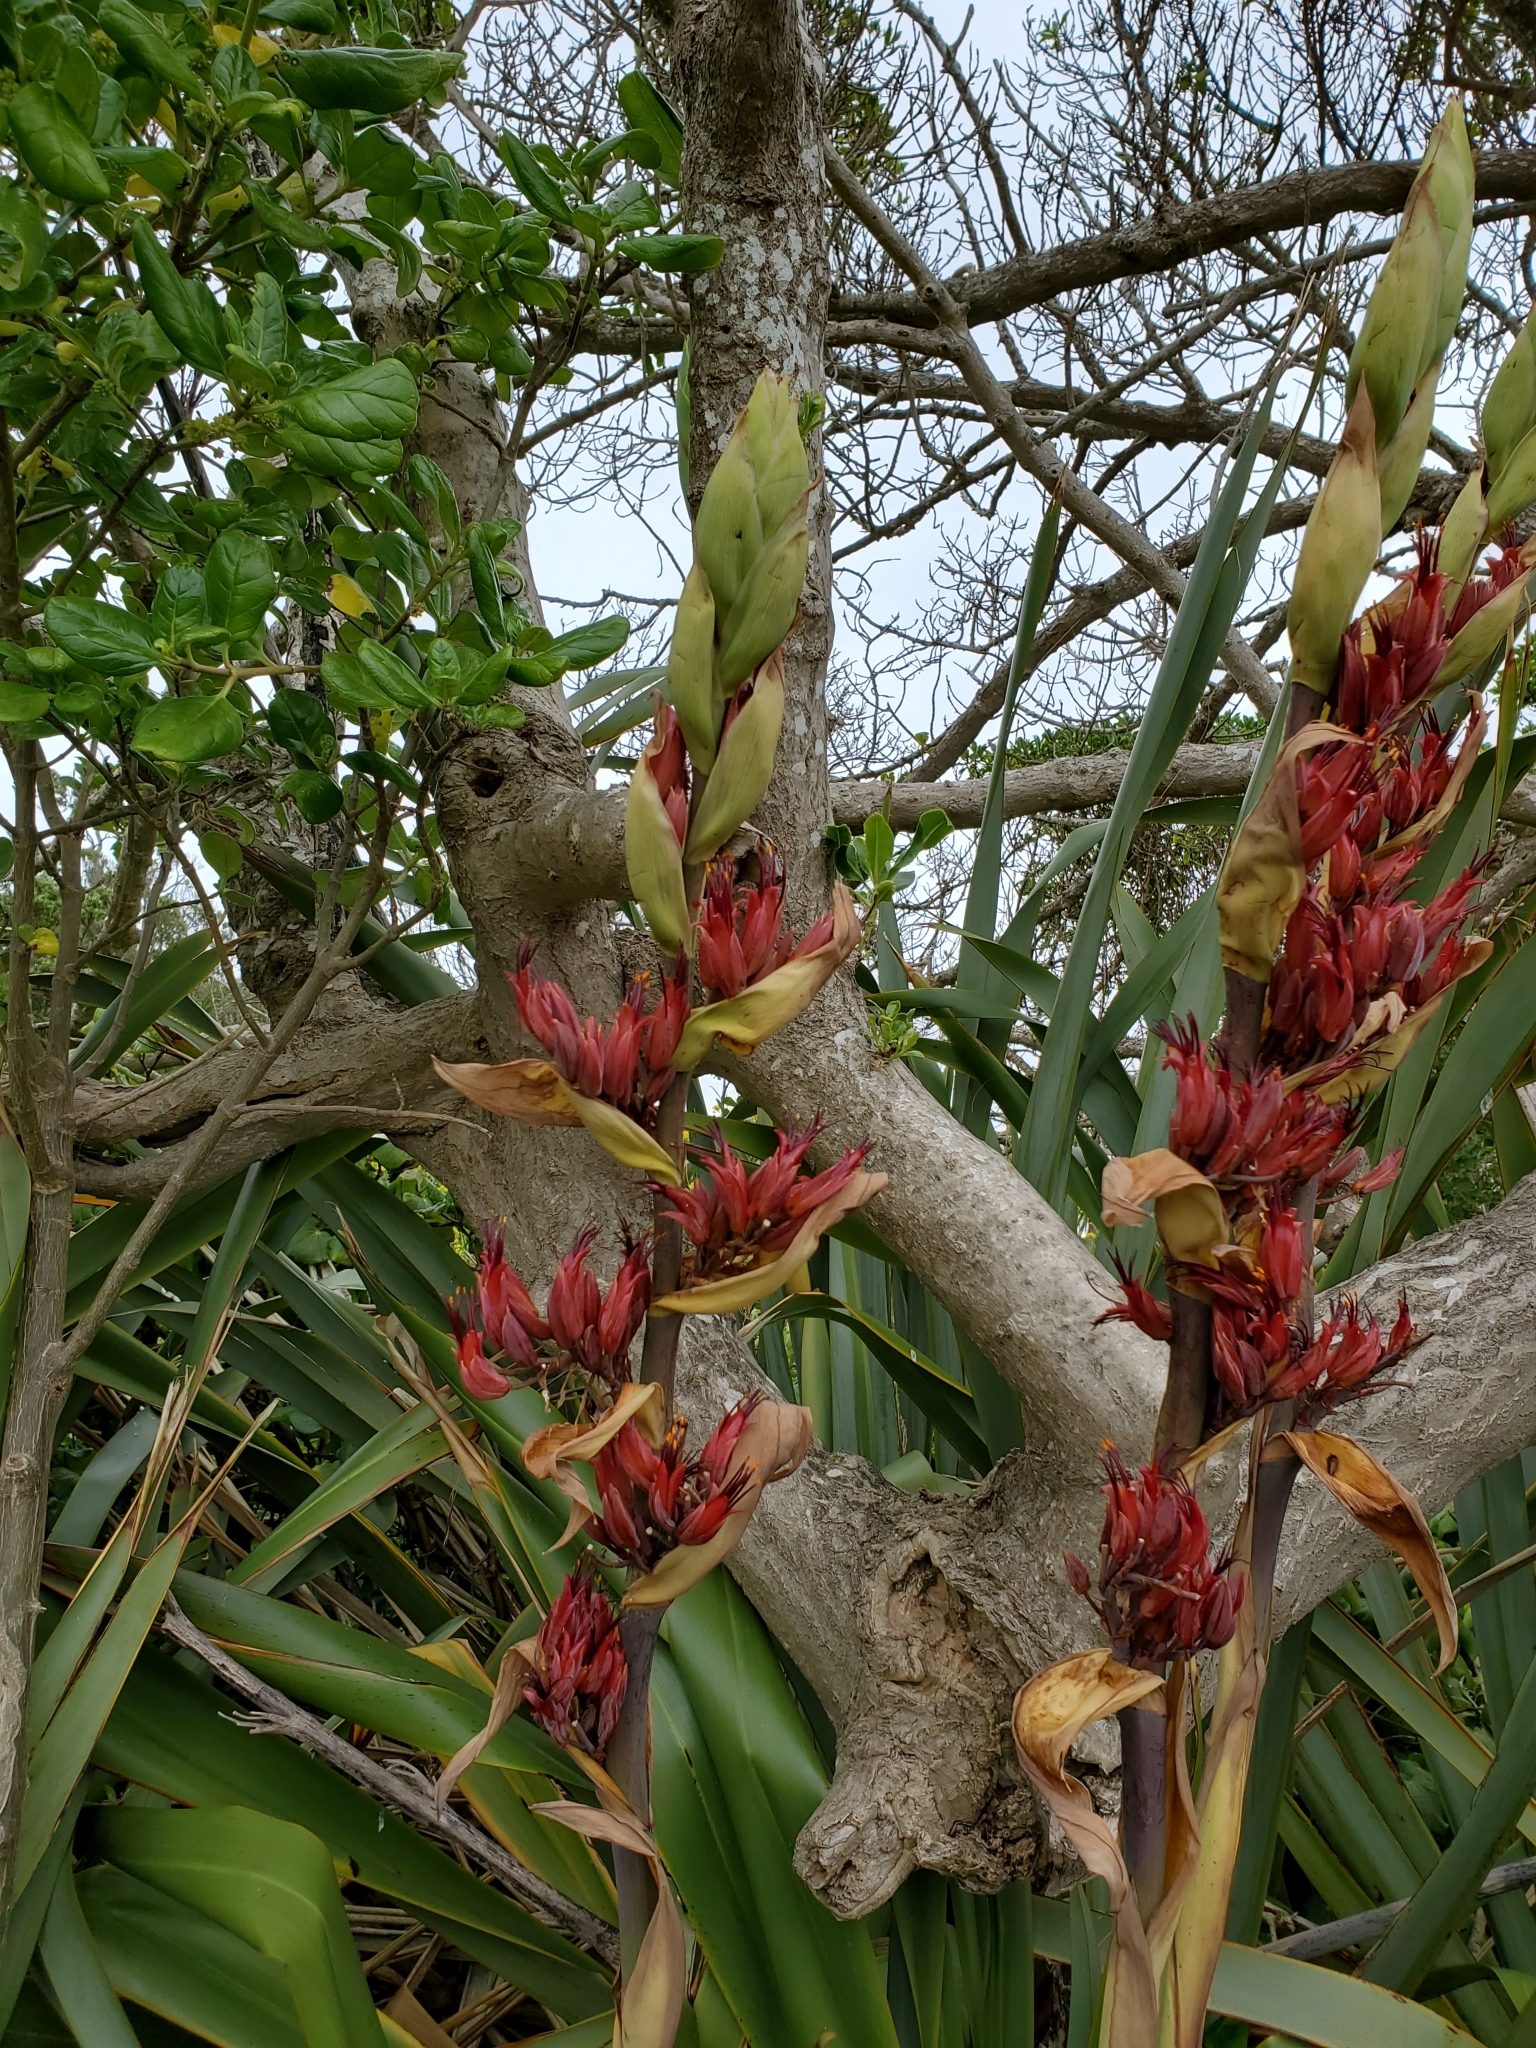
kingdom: Plantae
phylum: Tracheophyta
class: Liliopsida
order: Asparagales
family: Asphodelaceae
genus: Phormium
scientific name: Phormium tenax
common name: New zealand flax
